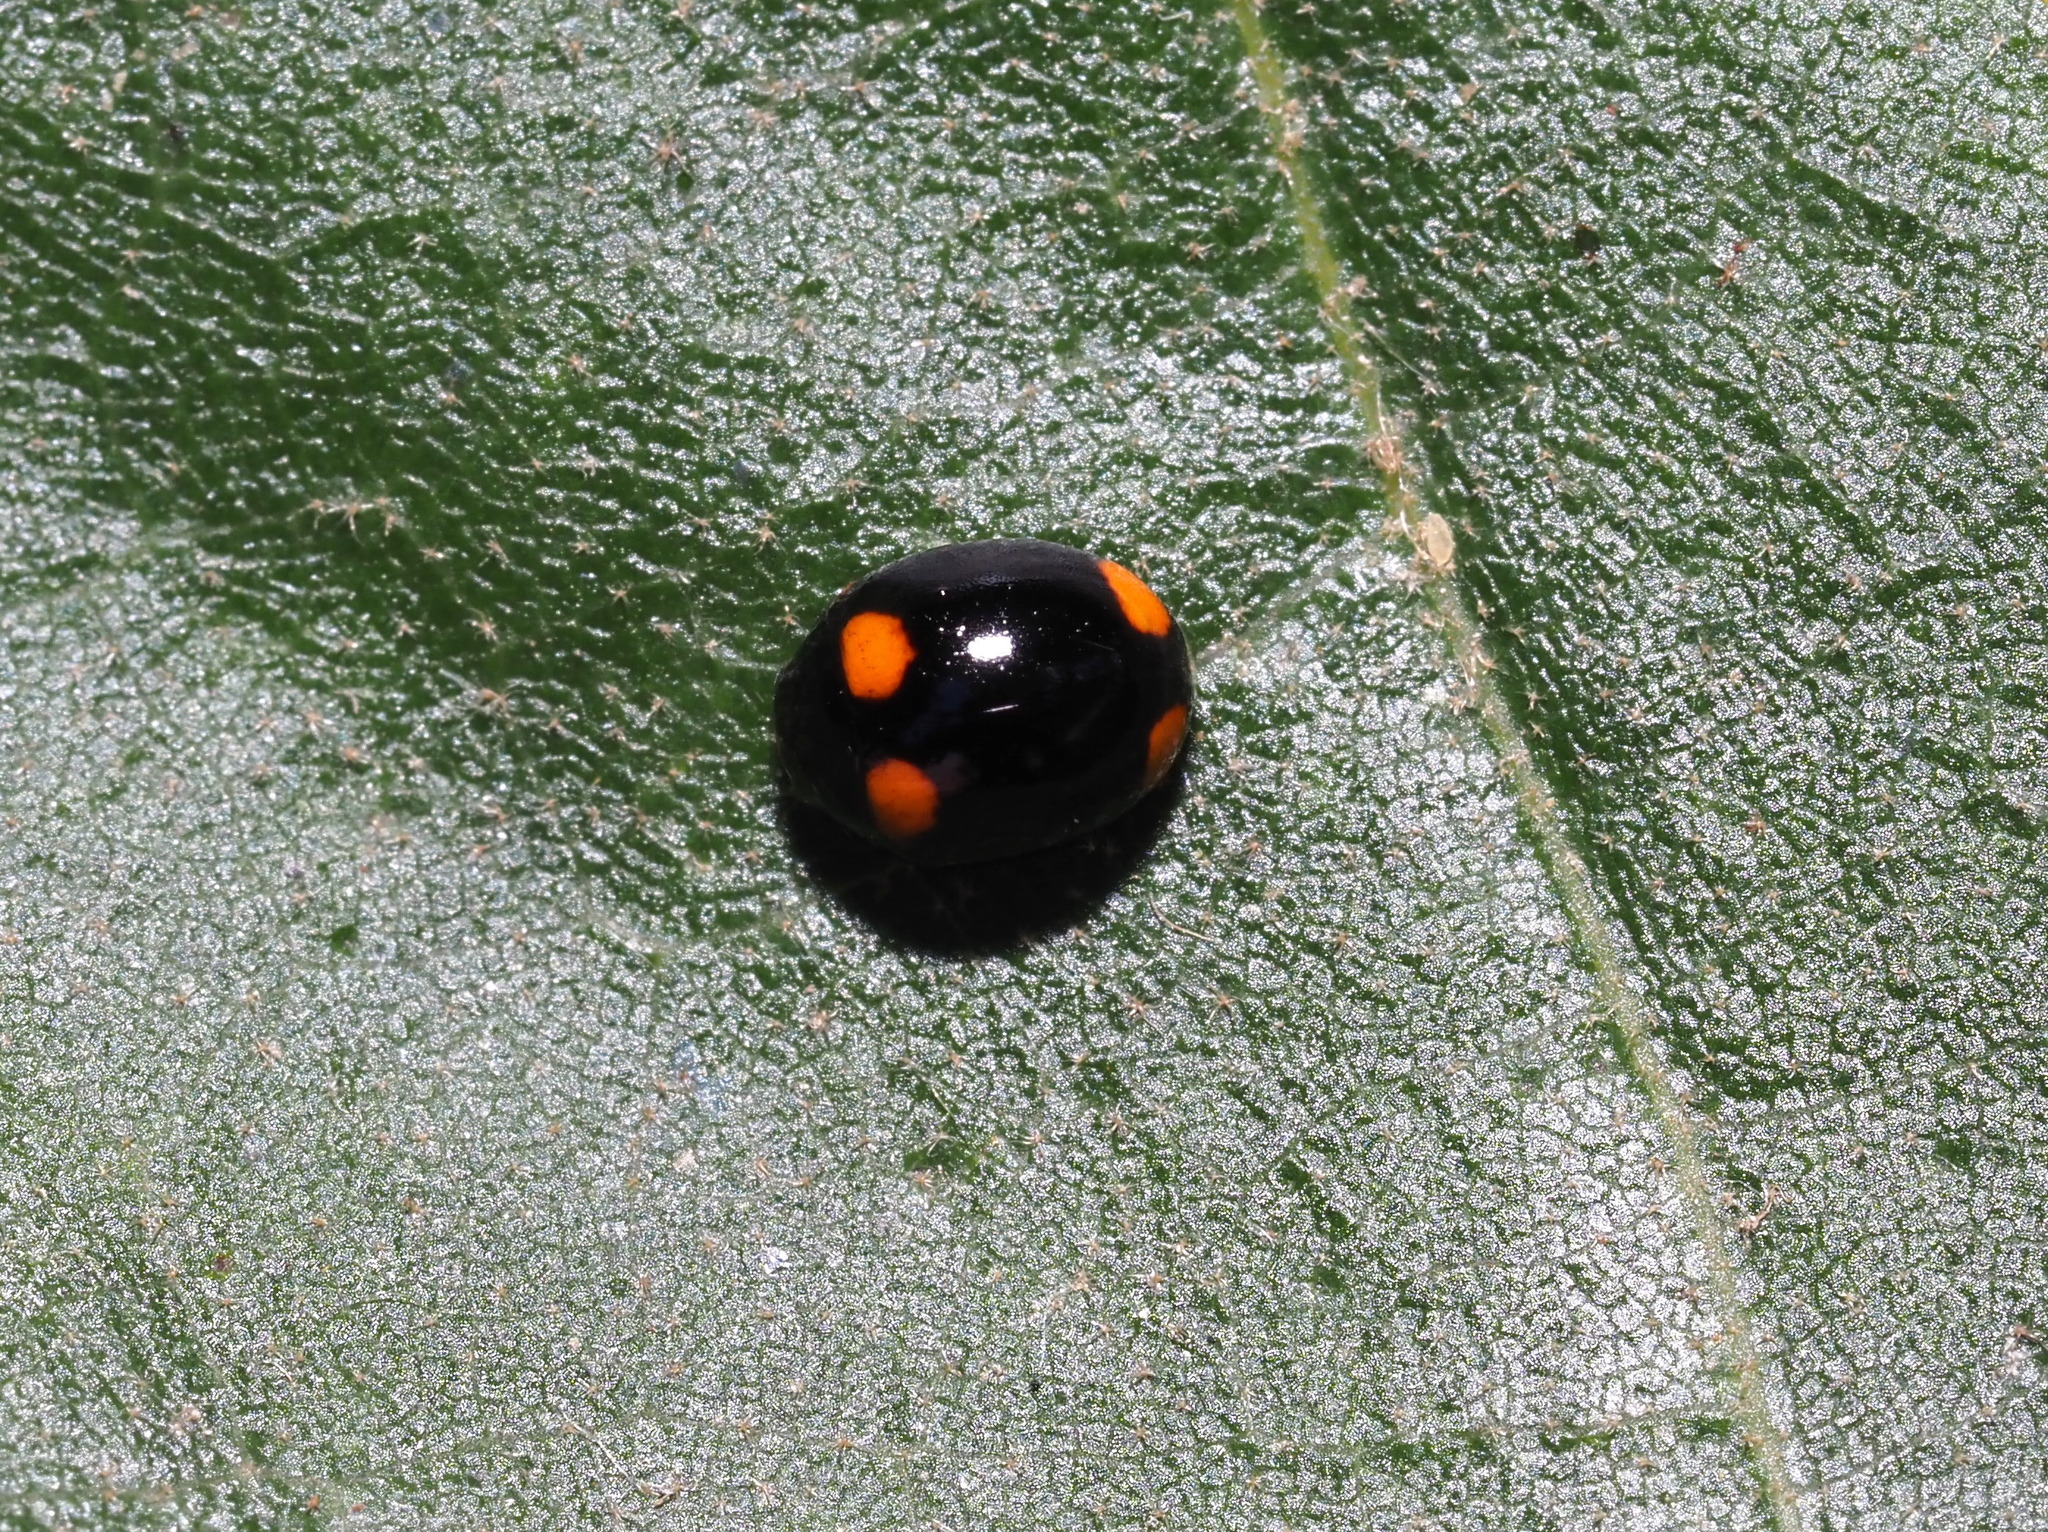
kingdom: Animalia
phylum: Arthropoda
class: Insecta
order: Coleoptera
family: Coccinellidae
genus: Brachiacantha
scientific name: Brachiacantha quadripunctata
